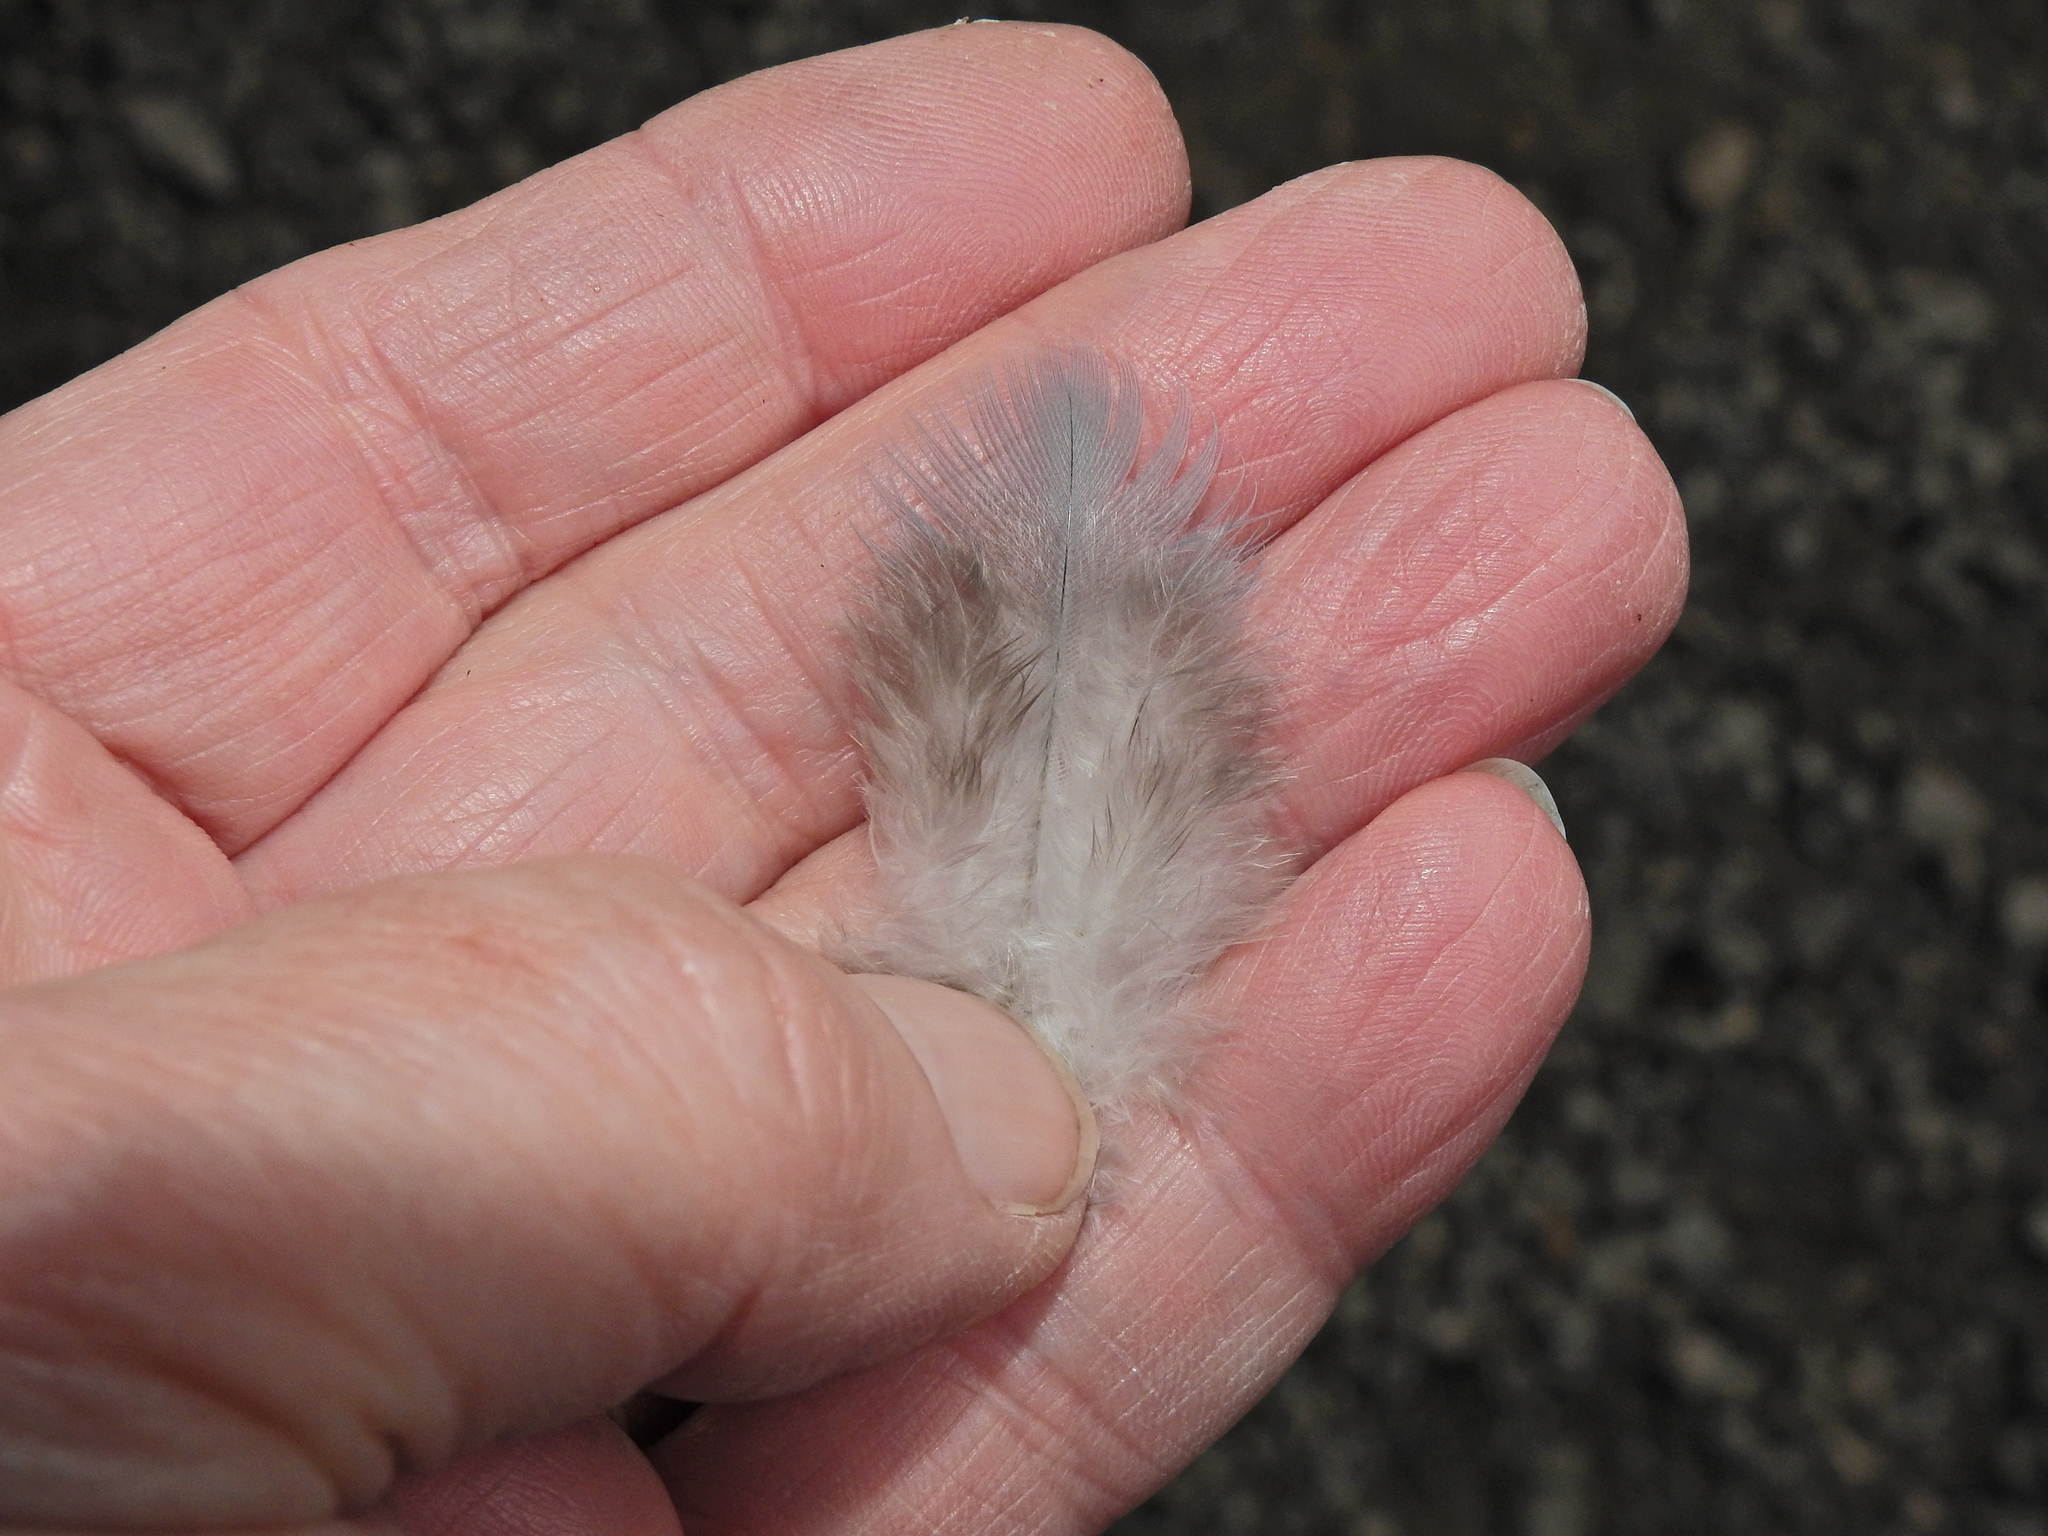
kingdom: Animalia
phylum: Chordata
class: Aves
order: Columbiformes
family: Columbidae
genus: Columba
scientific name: Columba palumbus
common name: Common wood pigeon
